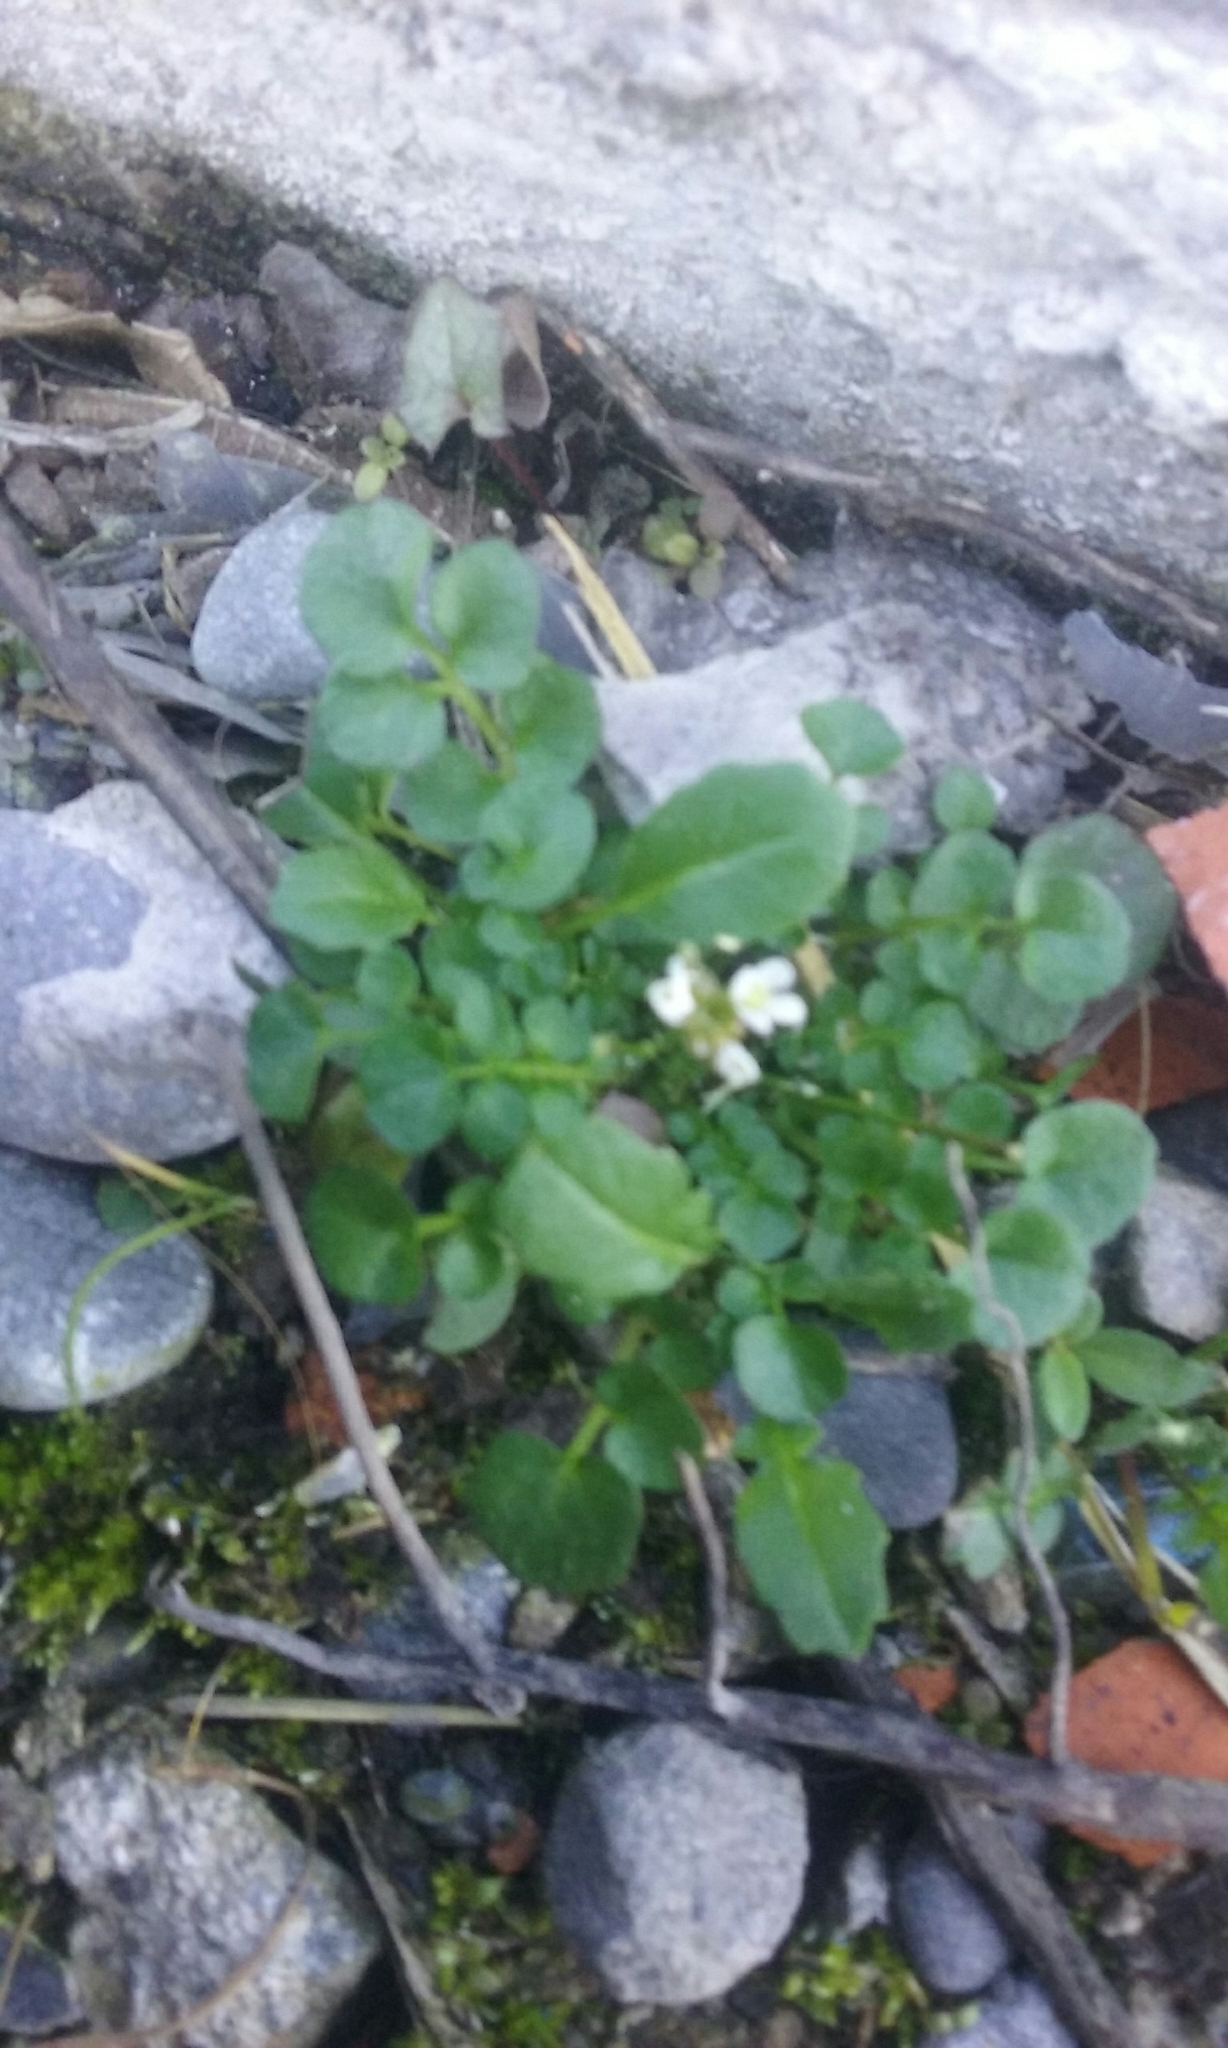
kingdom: Plantae
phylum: Tracheophyta
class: Magnoliopsida
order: Brassicales
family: Brassicaceae
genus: Cardamine
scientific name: Cardamine hirsuta
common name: Hairy bittercress
